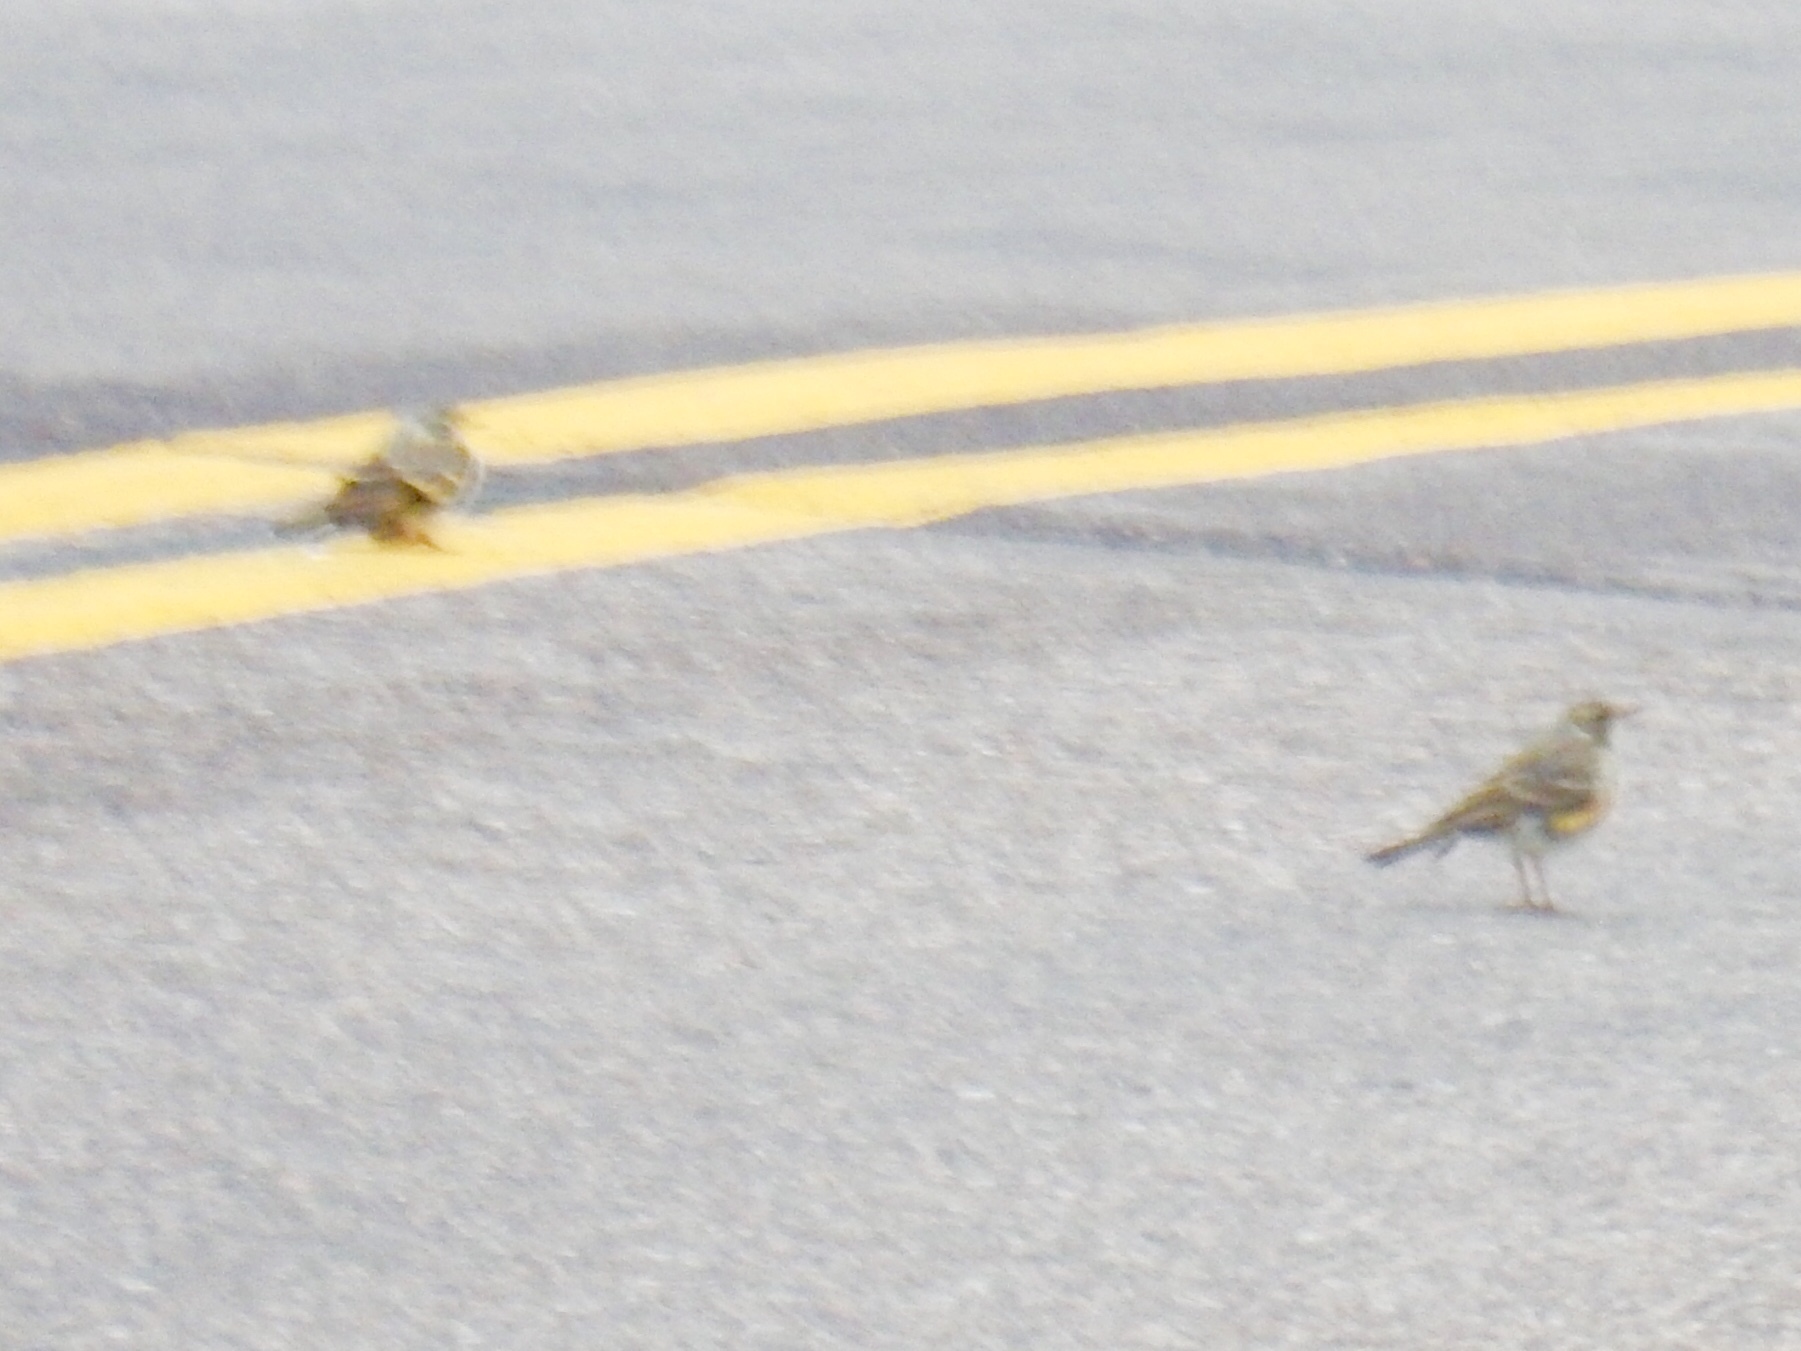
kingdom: Animalia
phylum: Chordata
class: Aves
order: Passeriformes
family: Turdidae
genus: Turdus
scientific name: Turdus migratorius
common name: American robin
